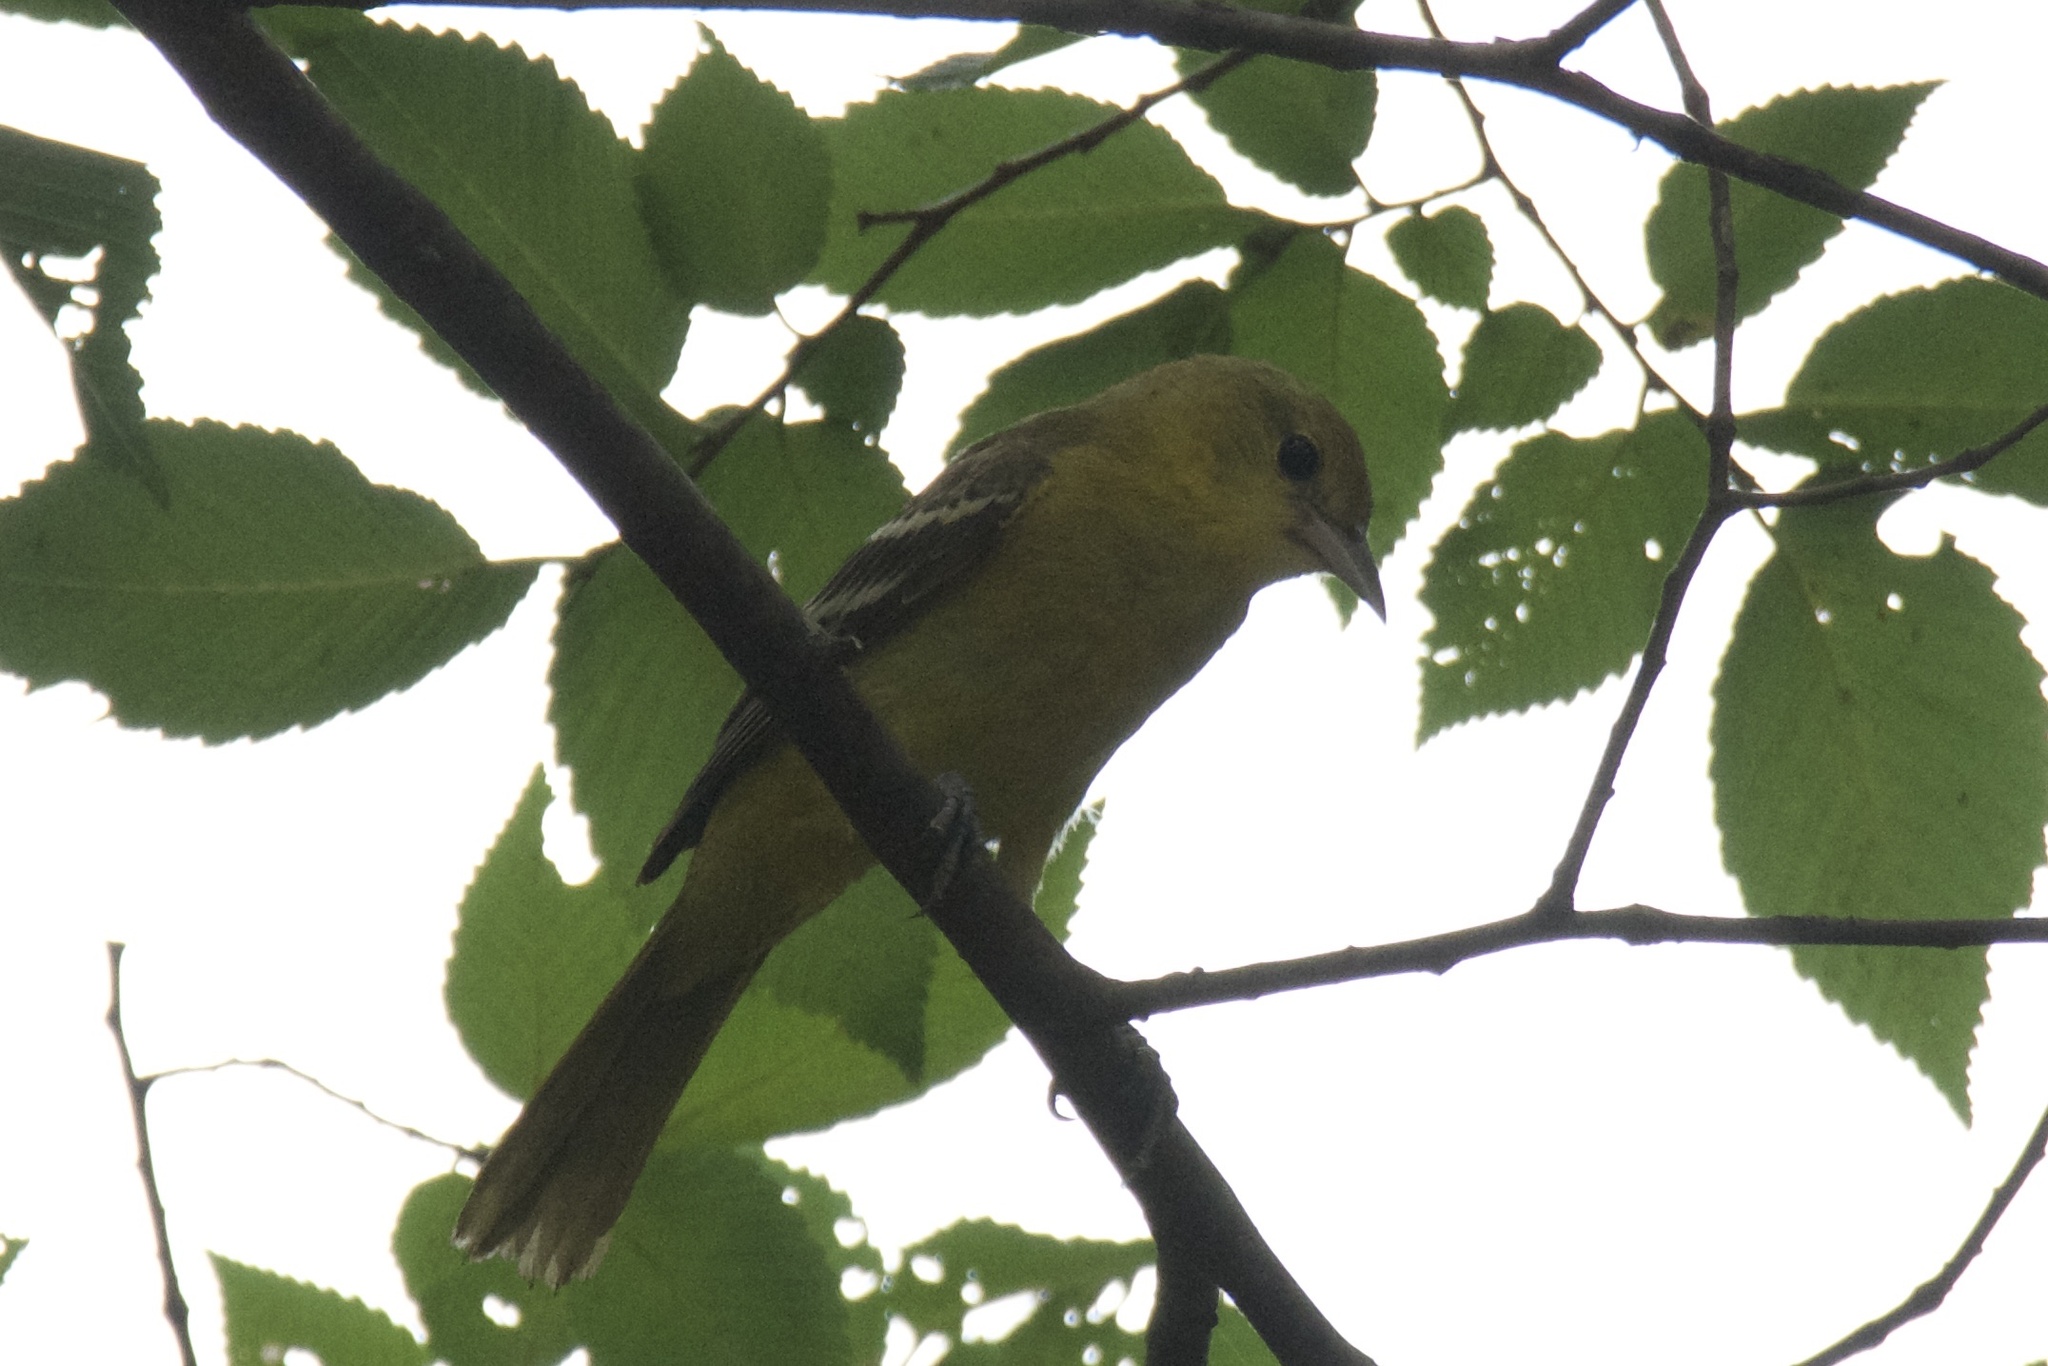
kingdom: Animalia
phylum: Chordata
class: Aves
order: Passeriformes
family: Icteridae
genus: Icterus
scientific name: Icterus spurius
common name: Orchard oriole
